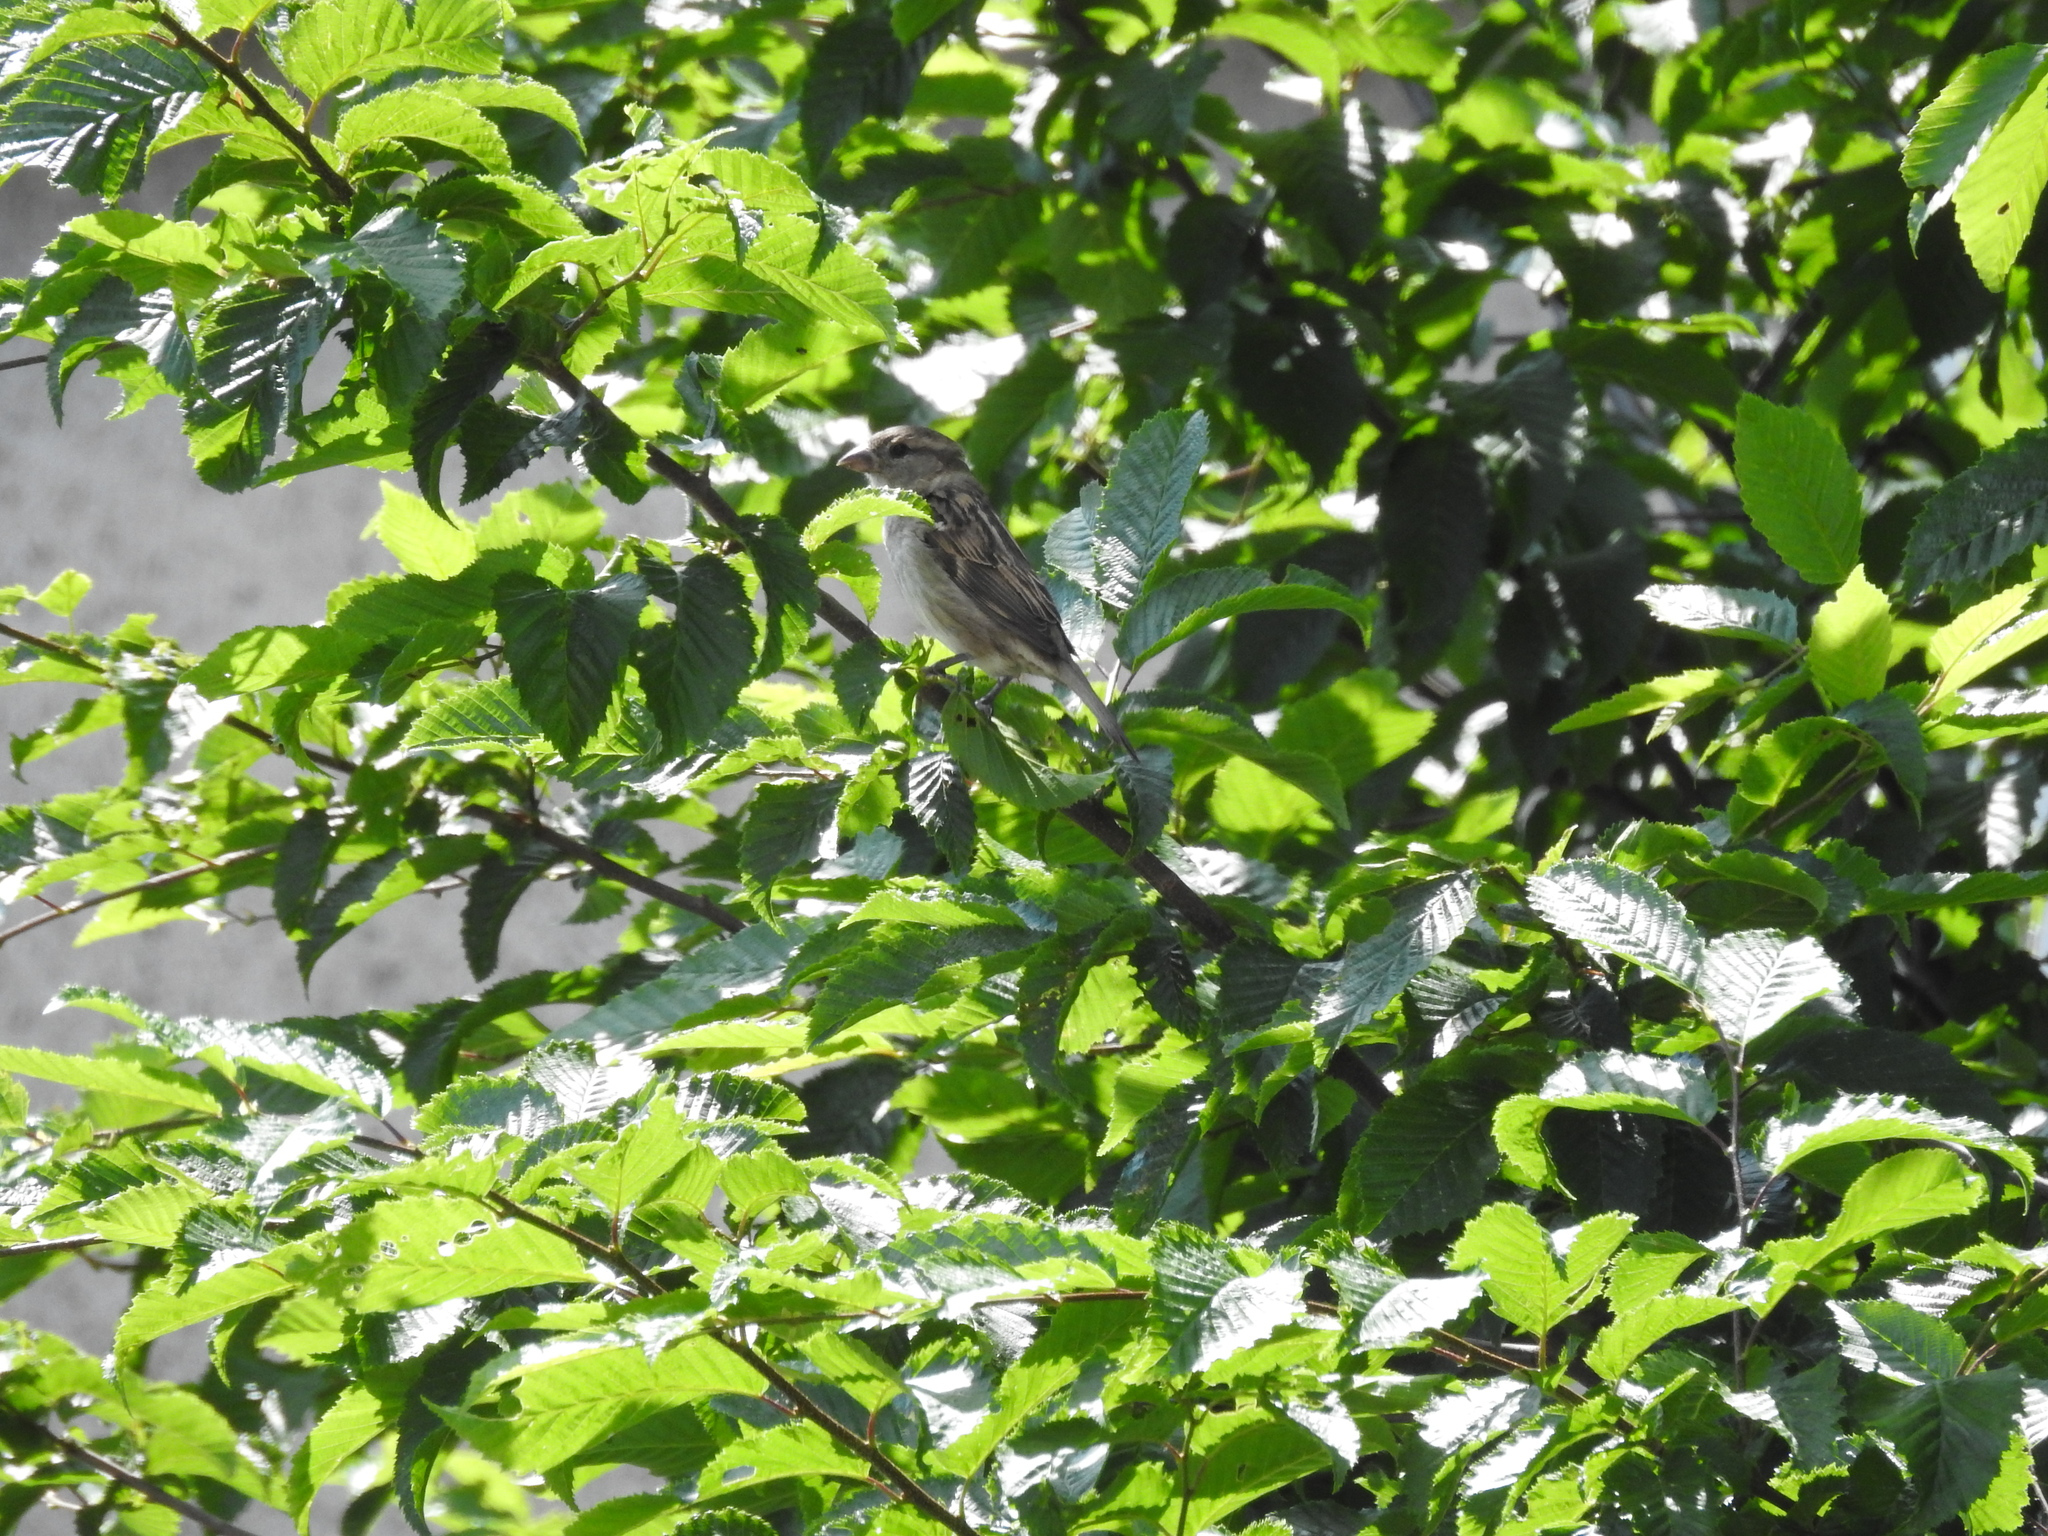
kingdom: Animalia
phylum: Chordata
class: Aves
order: Passeriformes
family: Passeridae
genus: Passer
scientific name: Passer domesticus
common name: House sparrow
